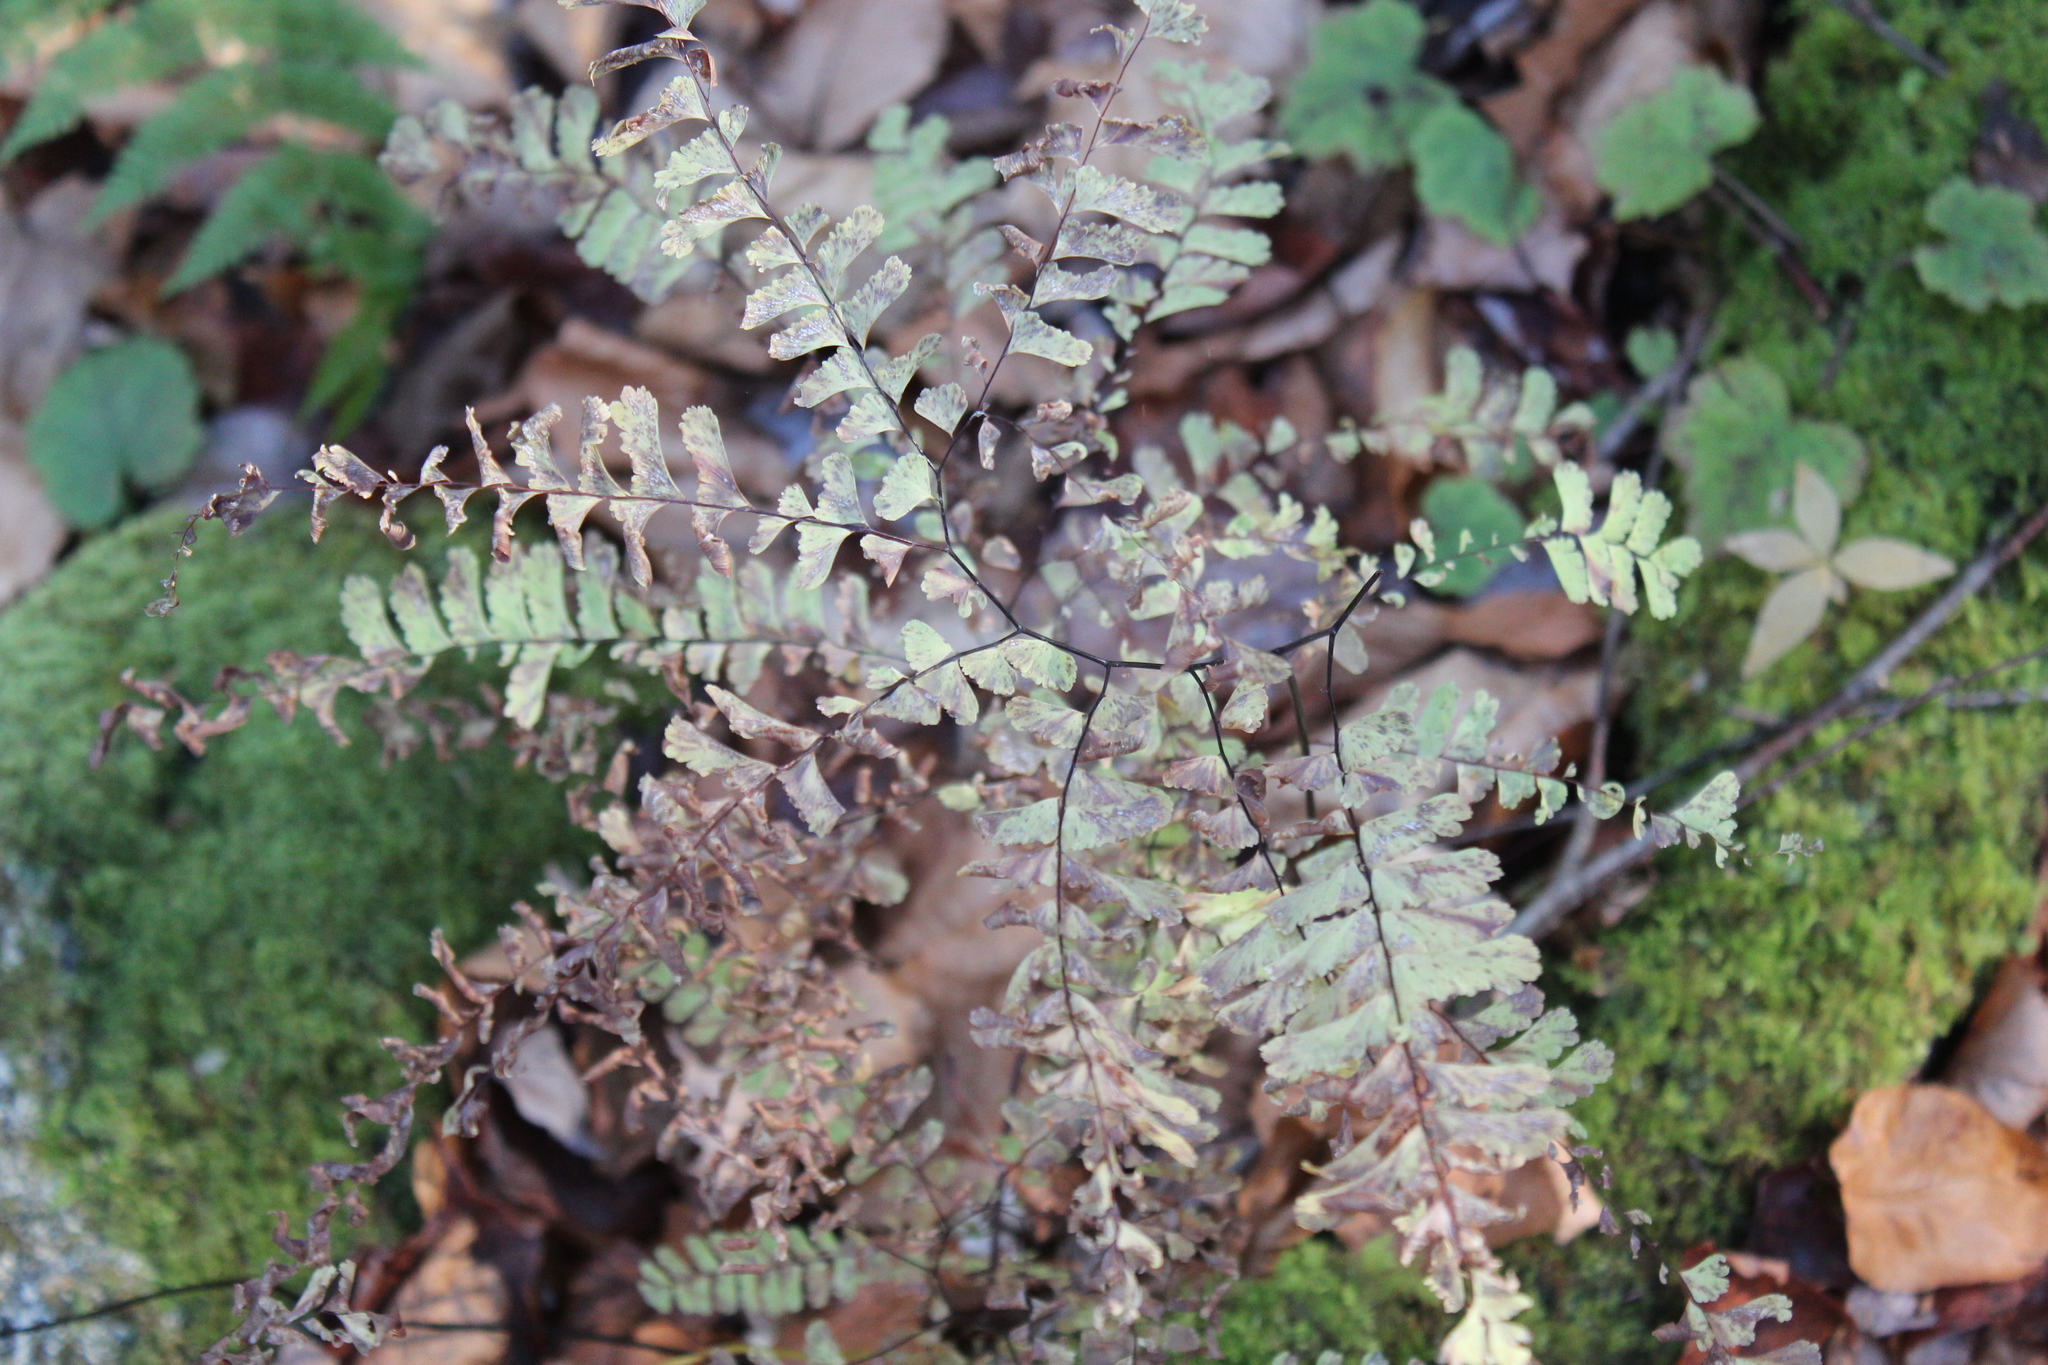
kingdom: Plantae
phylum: Tracheophyta
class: Polypodiopsida
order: Polypodiales
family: Pteridaceae
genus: Adiantum
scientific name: Adiantum pedatum
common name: Five-finger fern
